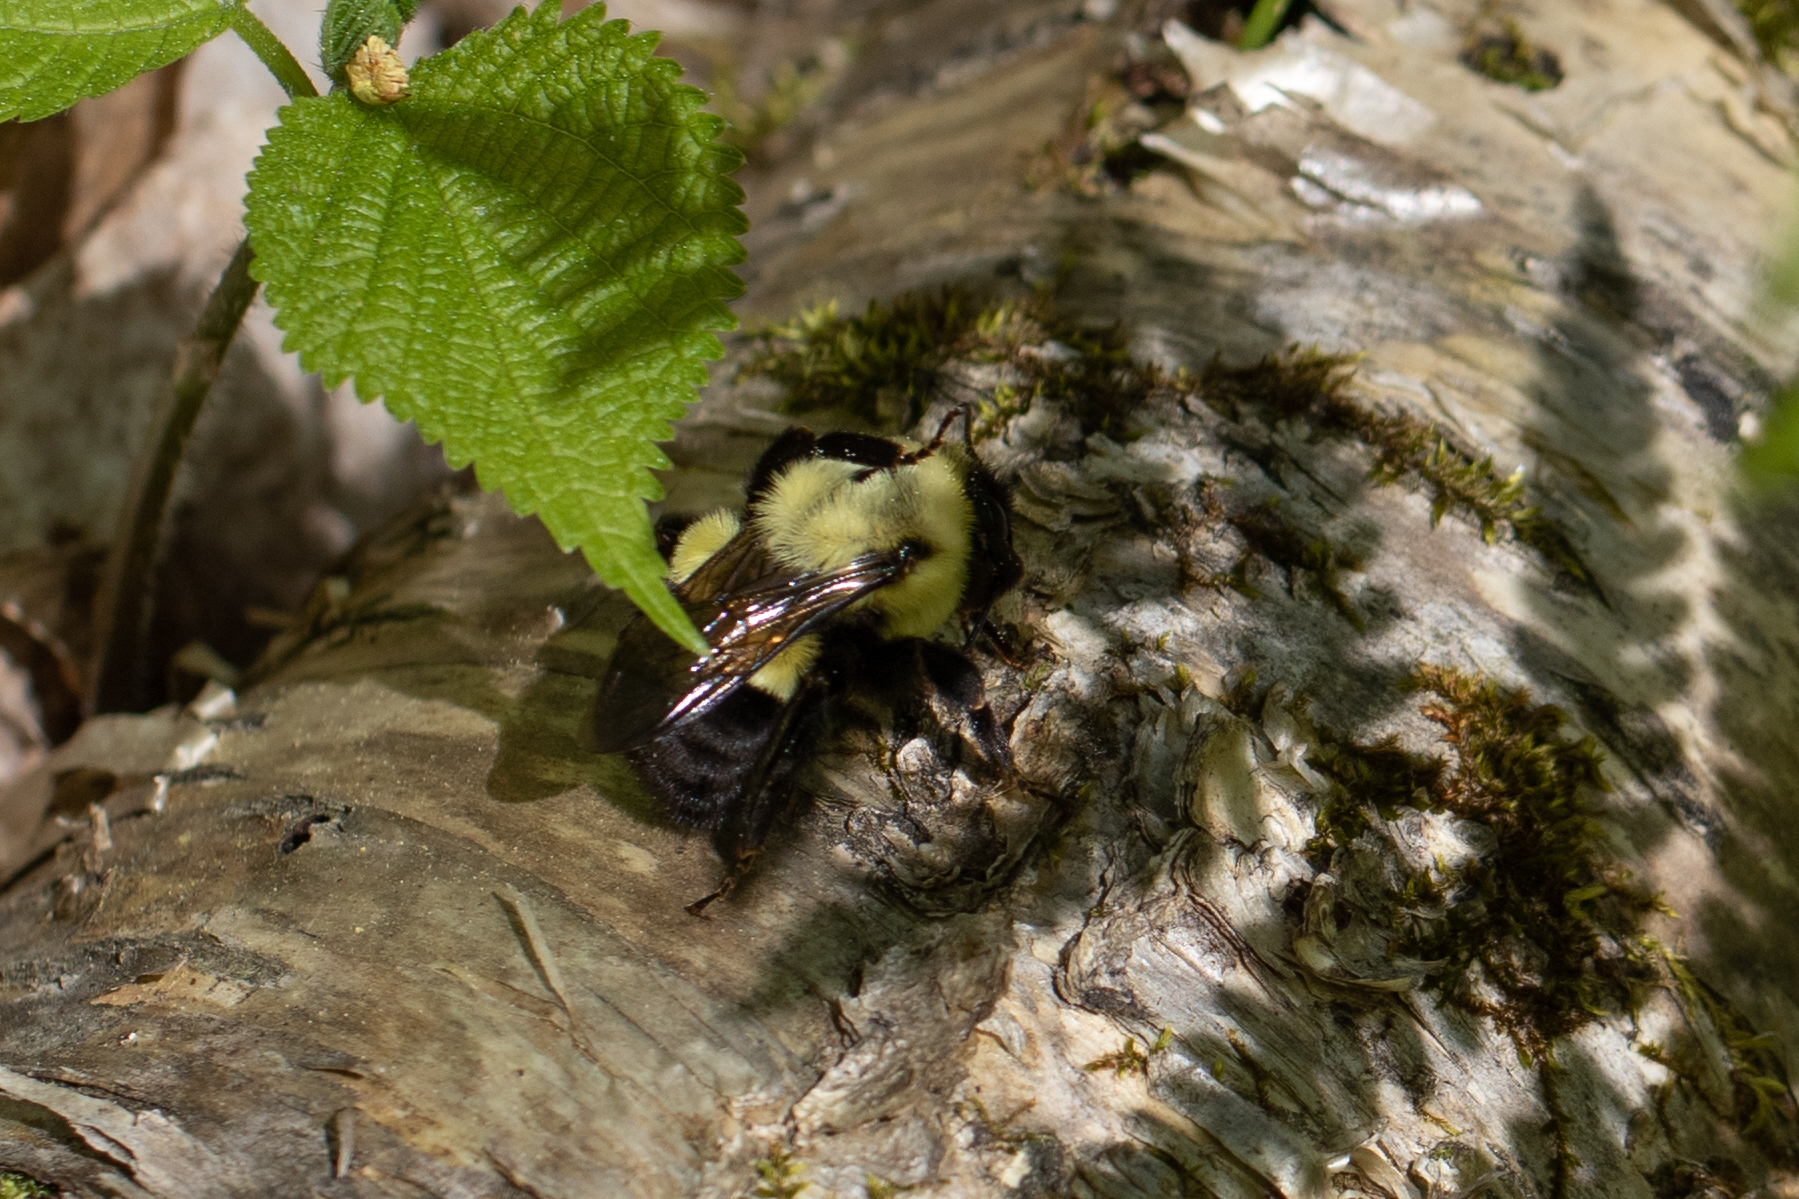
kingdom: Animalia
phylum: Arthropoda
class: Insecta
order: Hymenoptera
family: Apidae
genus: Bombus
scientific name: Bombus impatiens
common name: Common eastern bumble bee
